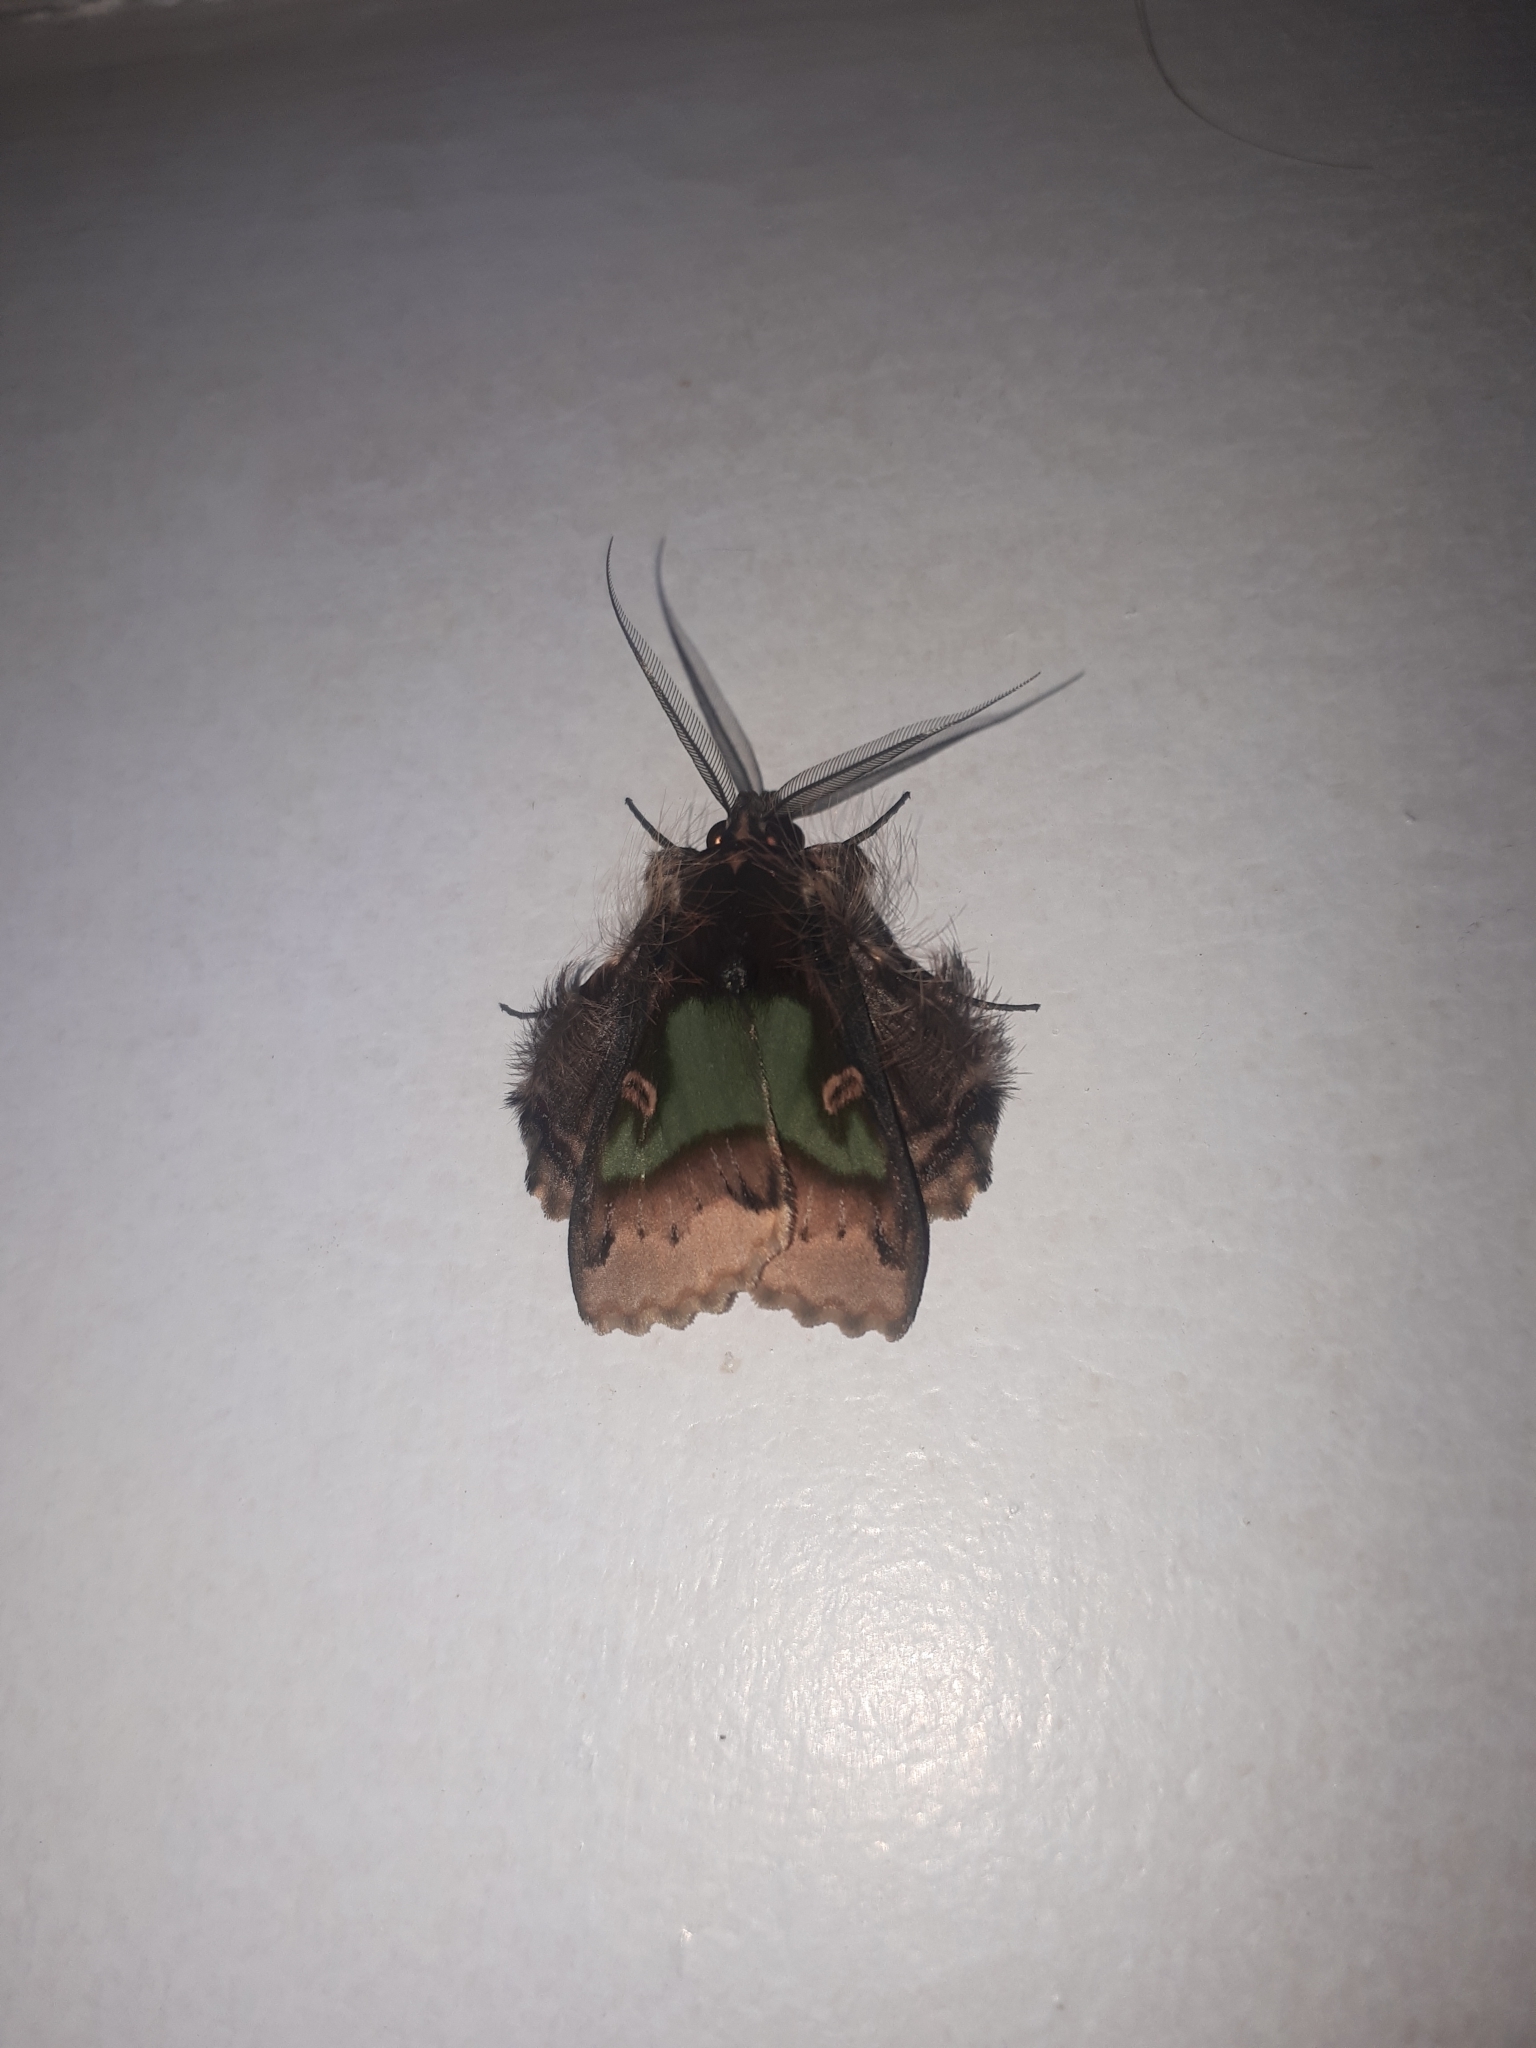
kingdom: Animalia
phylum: Arthropoda
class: Insecta
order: Lepidoptera
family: Erebidae
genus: Ceroctena
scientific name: Ceroctena amynta
